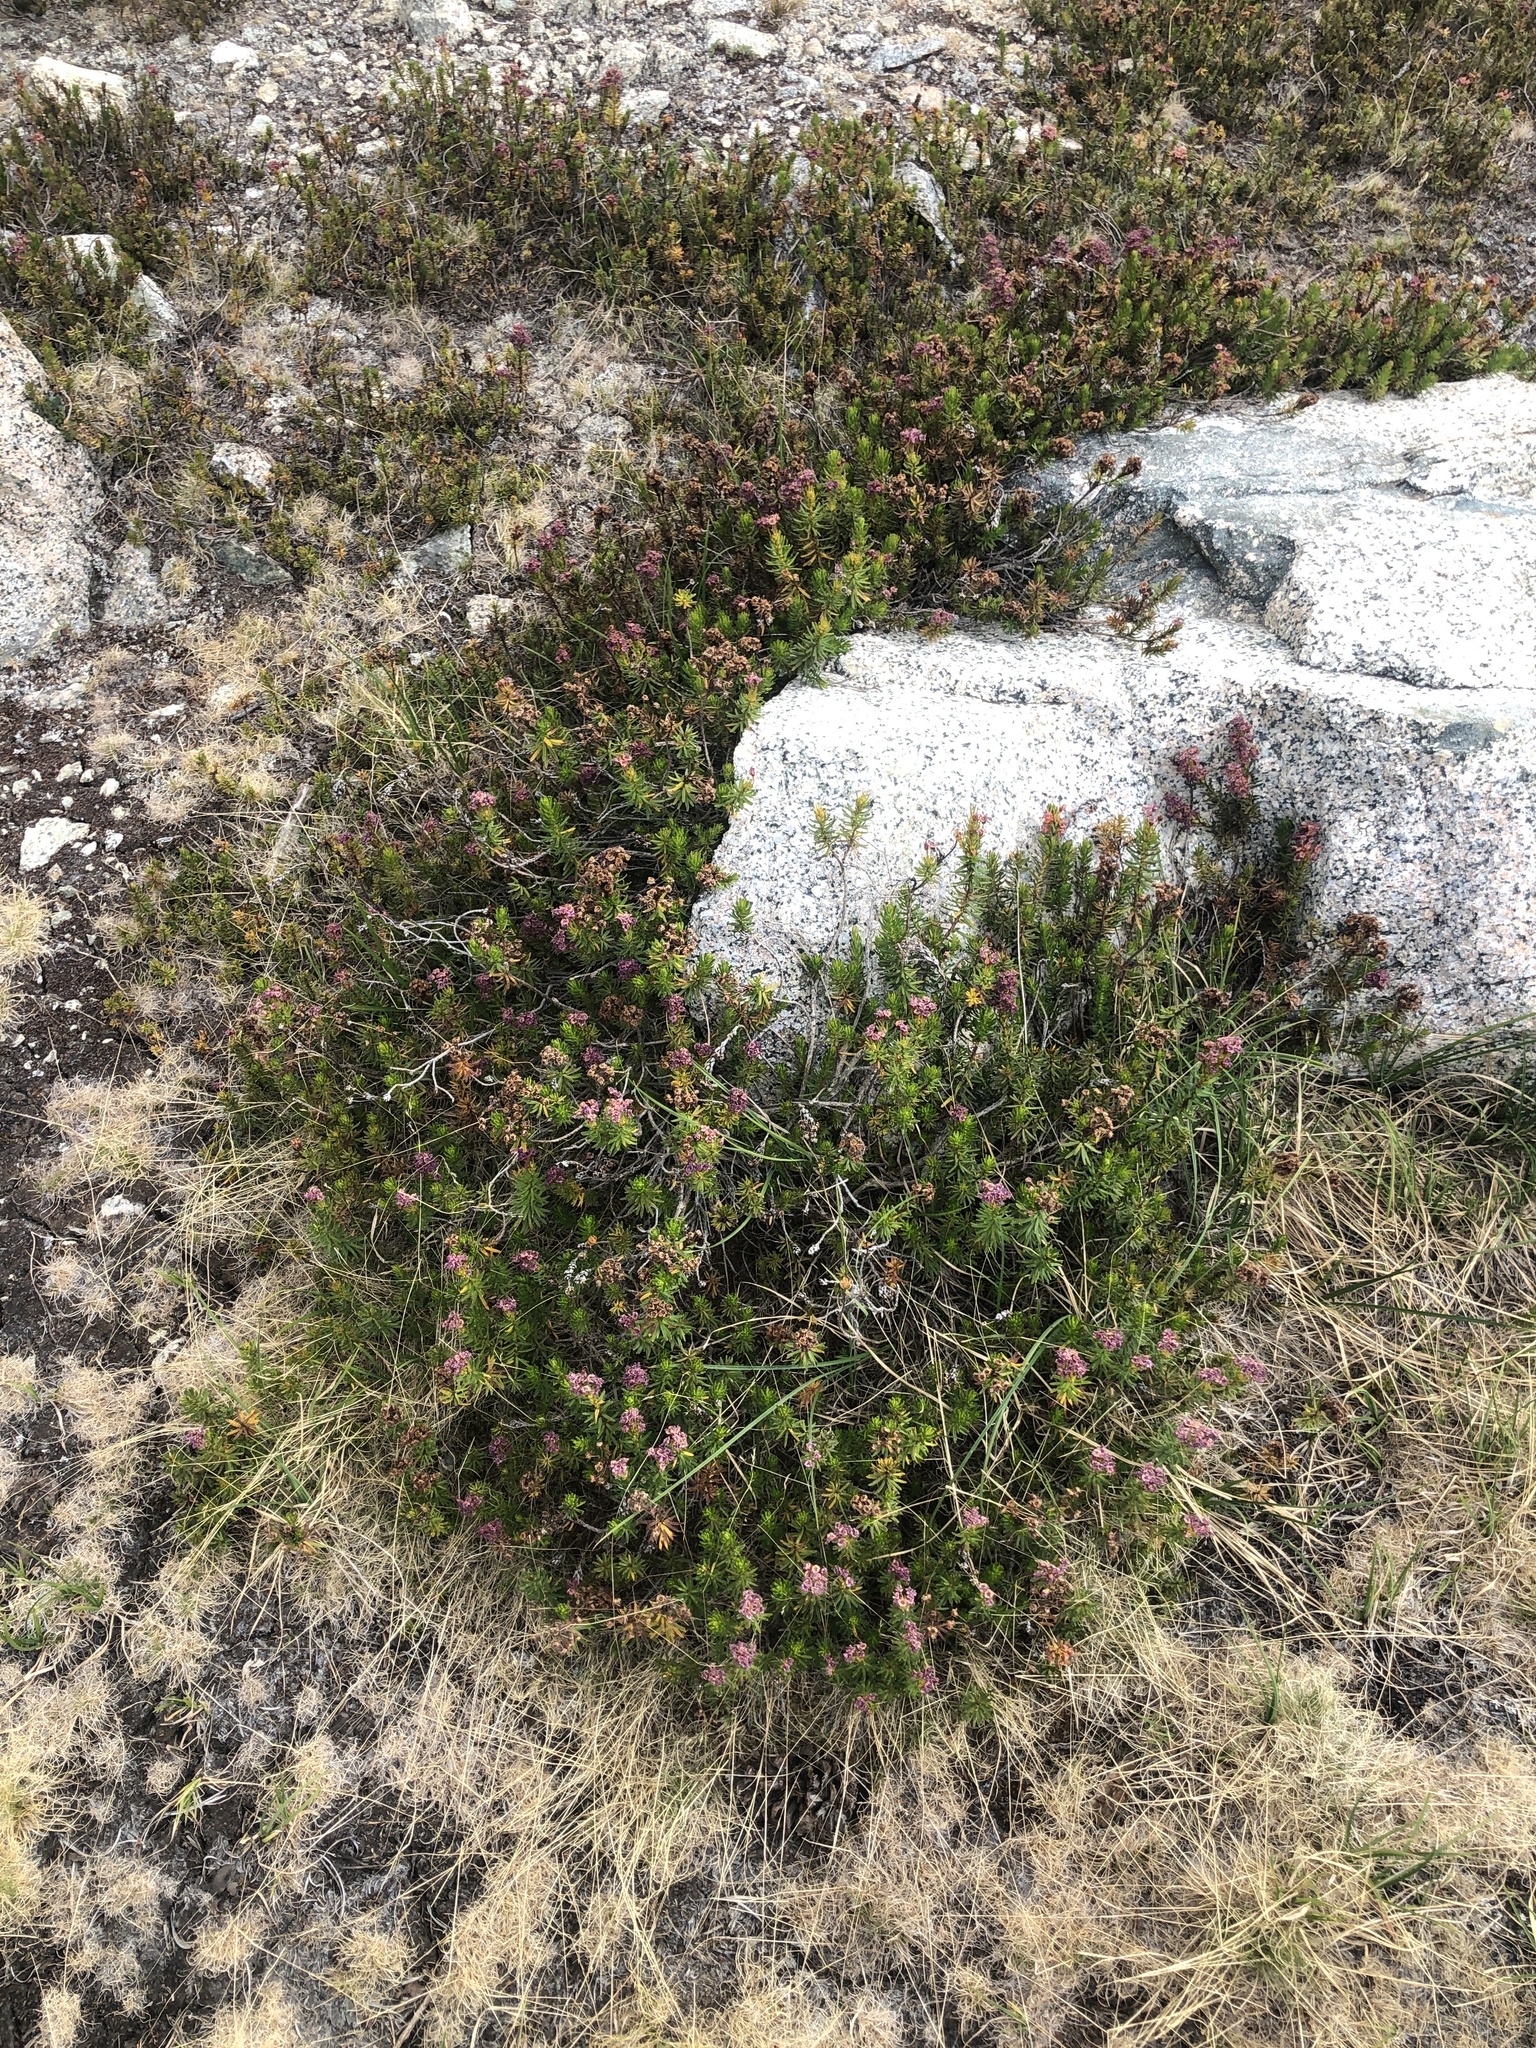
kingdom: Plantae
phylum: Tracheophyta
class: Magnoliopsida
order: Ericales
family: Ericaceae
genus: Phyllodoce
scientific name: Phyllodoce breweri
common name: Brewer's mountain-heather
